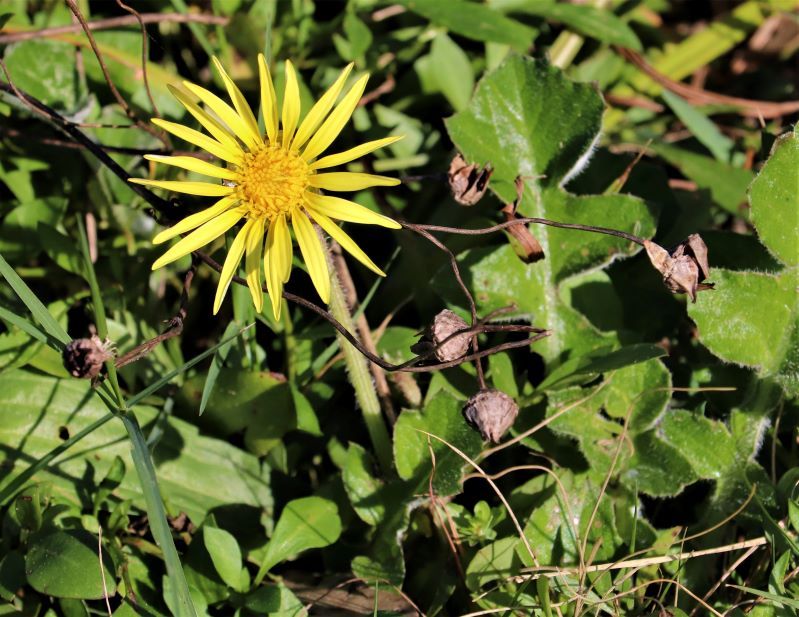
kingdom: Plantae
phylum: Tracheophyta
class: Magnoliopsida
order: Asterales
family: Asteraceae
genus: Arctotheca
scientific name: Arctotheca prostrata
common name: Capeweed
